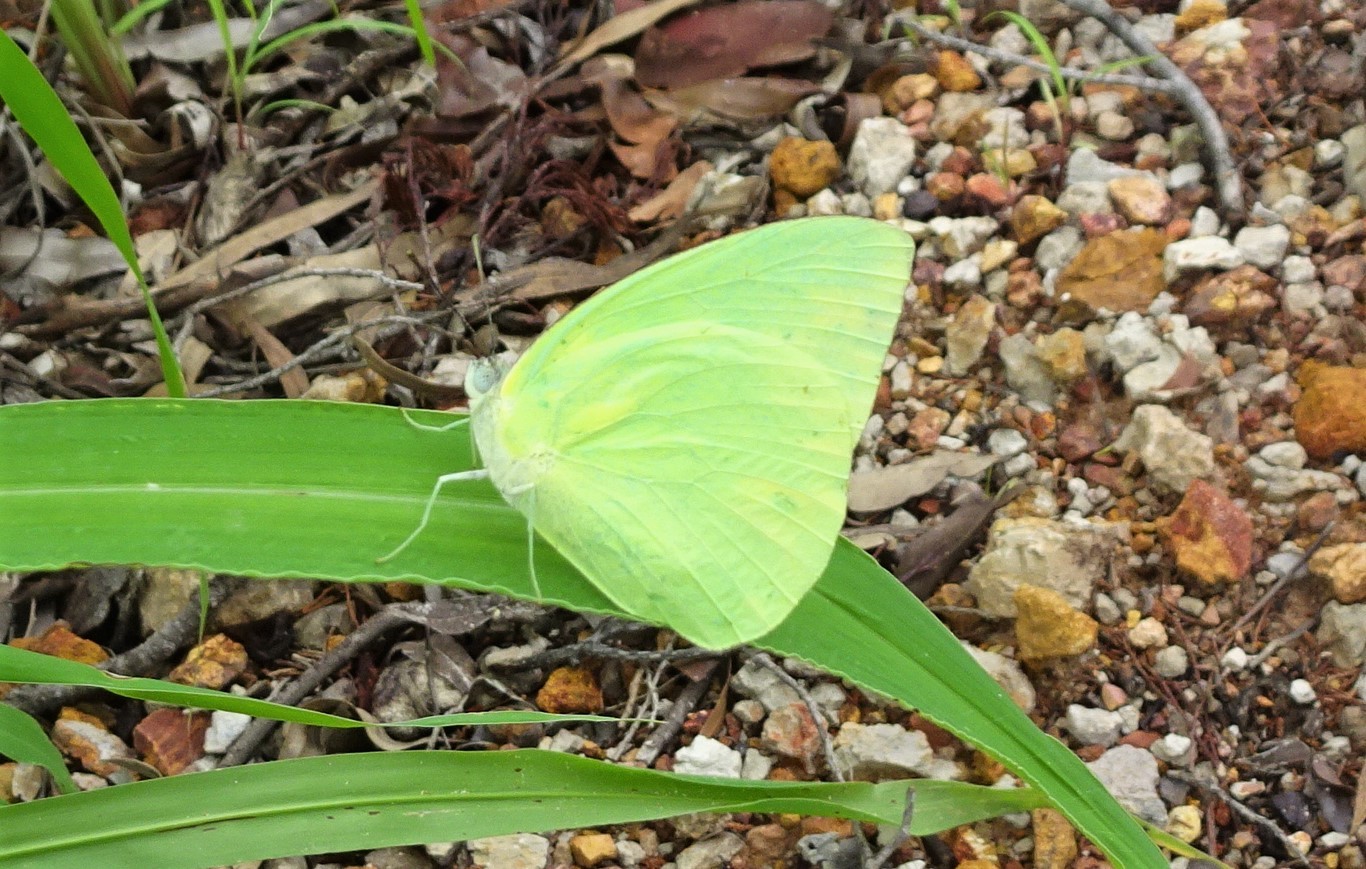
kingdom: Animalia
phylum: Arthropoda
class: Insecta
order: Lepidoptera
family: Pieridae
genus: Catopsilia
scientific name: Catopsilia pomona
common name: Common emigrant
